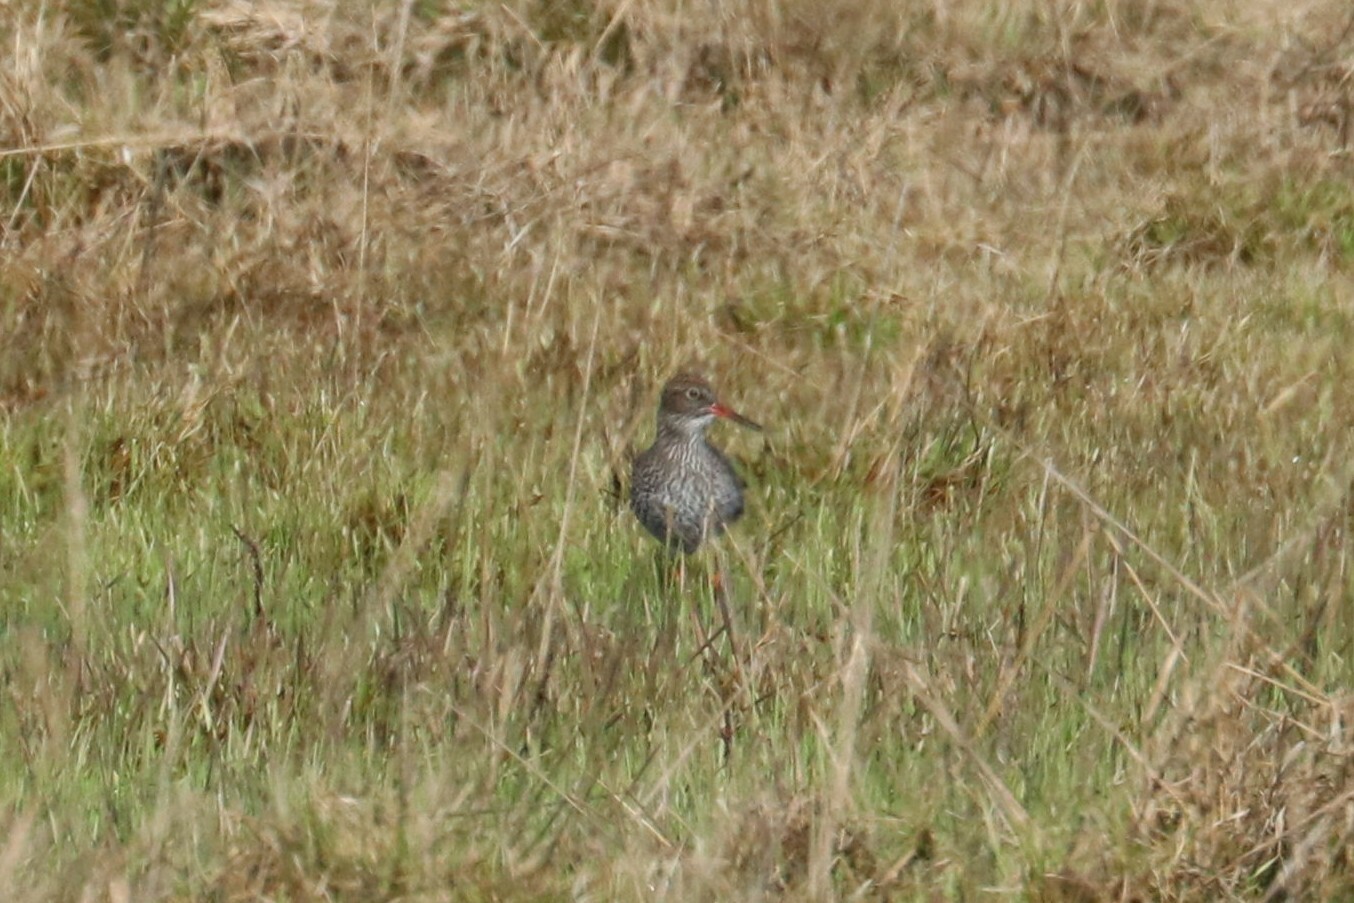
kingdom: Animalia
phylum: Chordata
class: Aves
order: Charadriiformes
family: Scolopacidae
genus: Tringa
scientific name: Tringa totanus
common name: Common redshank
